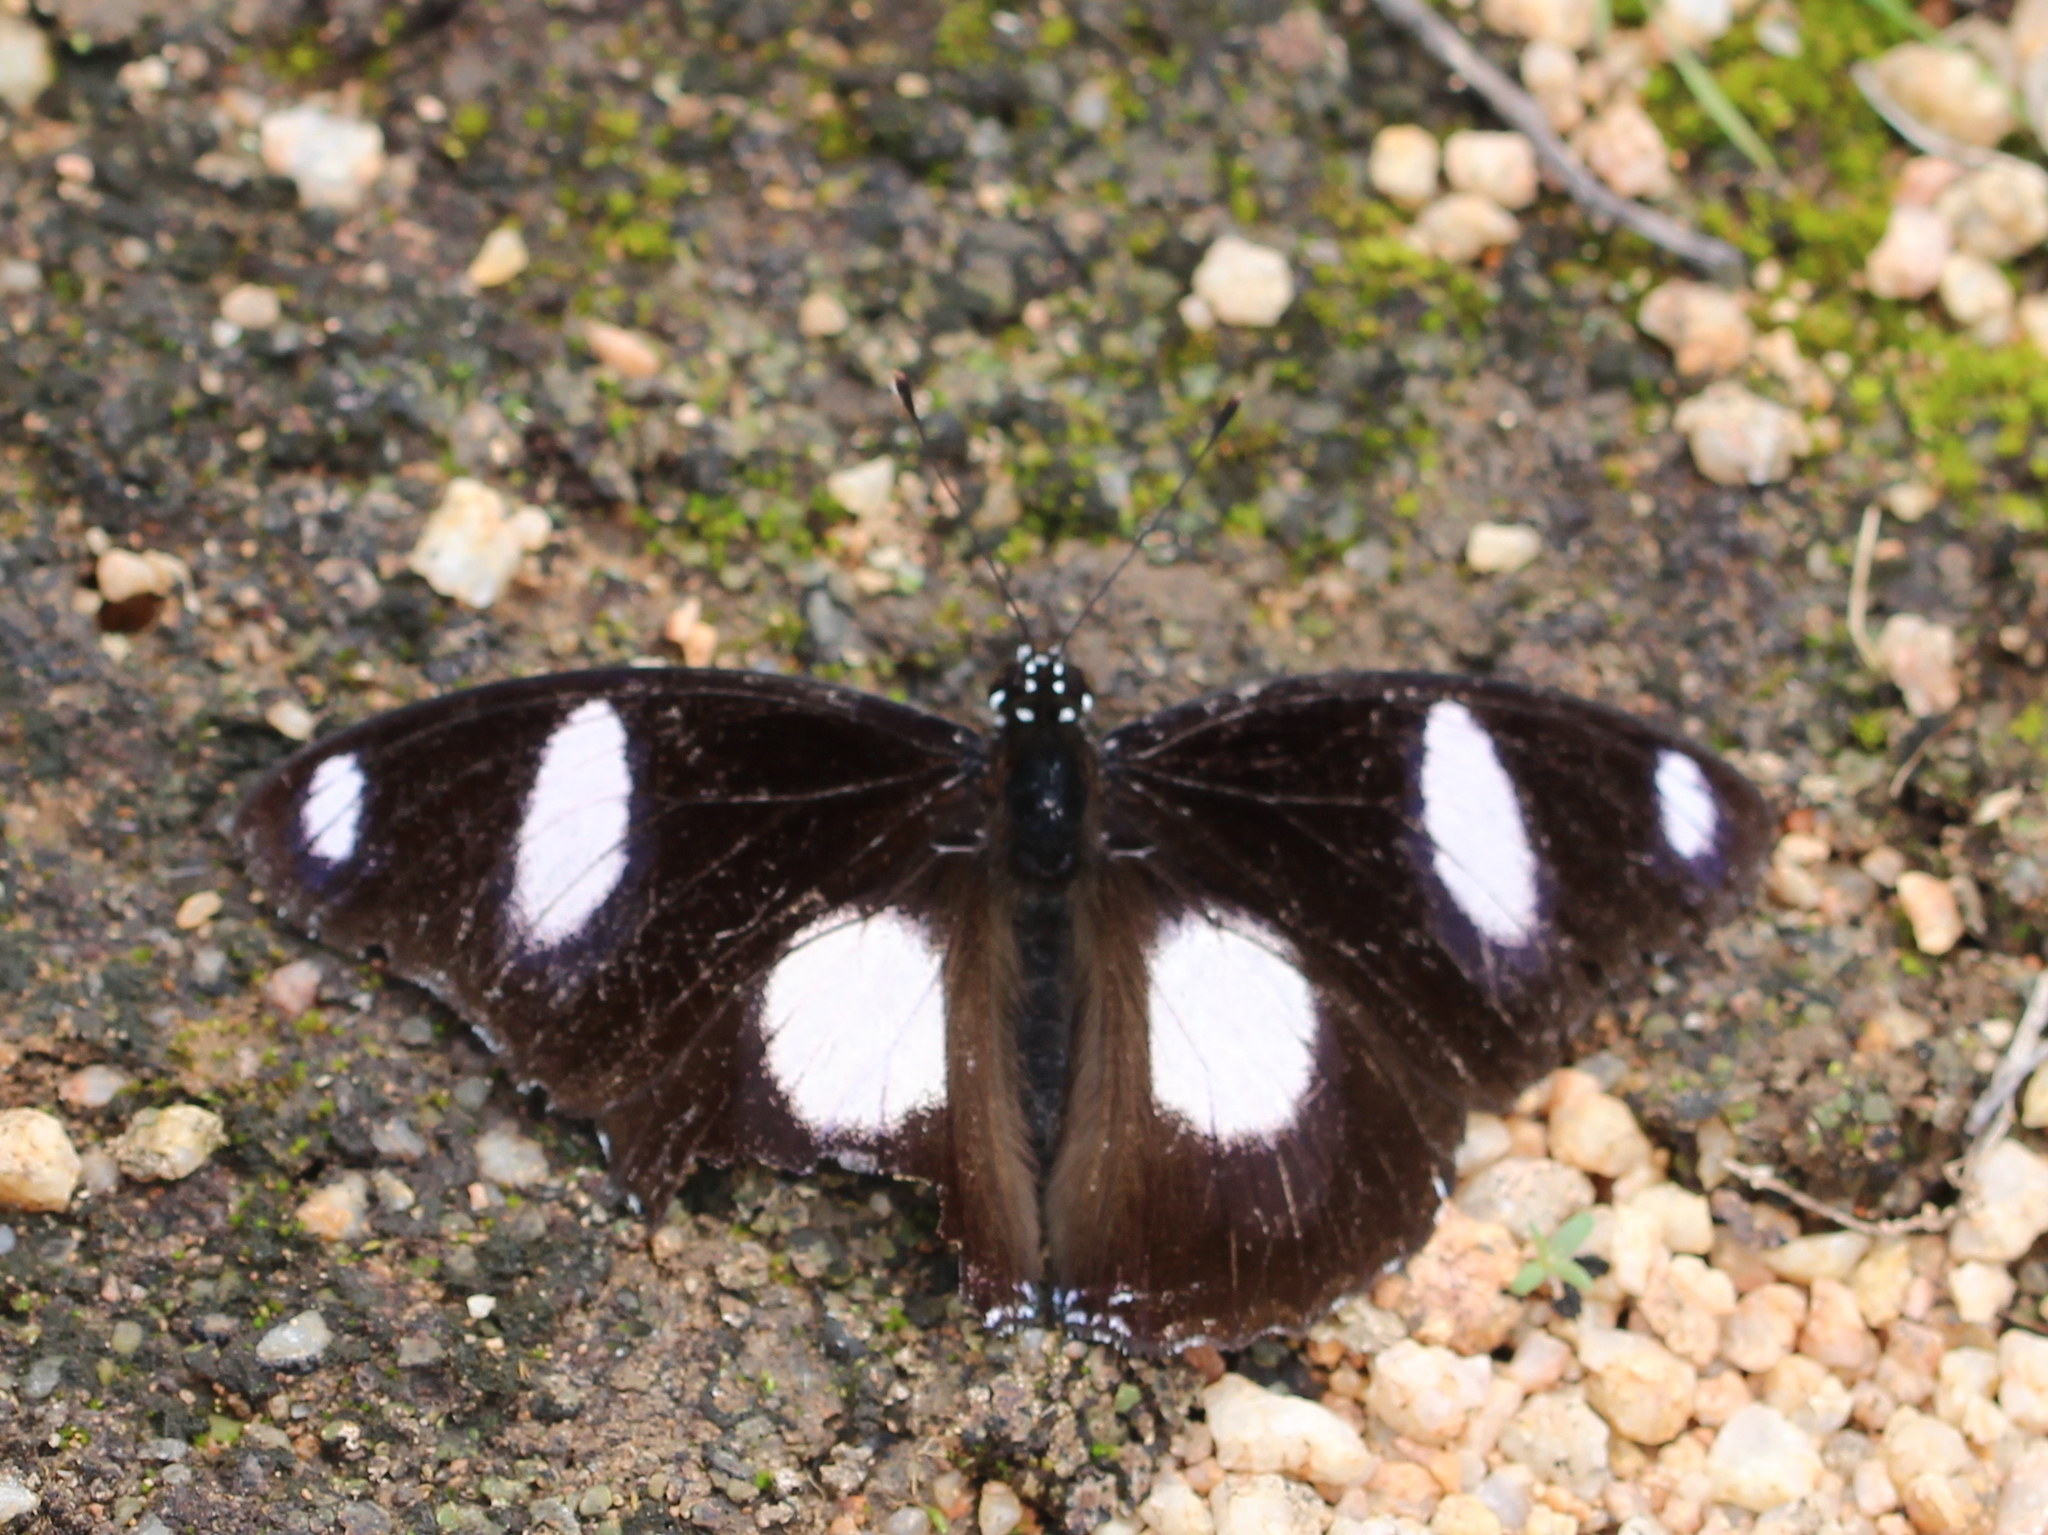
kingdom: Animalia
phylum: Arthropoda
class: Insecta
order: Lepidoptera
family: Nymphalidae
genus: Hypolimnas
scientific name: Hypolimnas misippus
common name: False plain tiger
